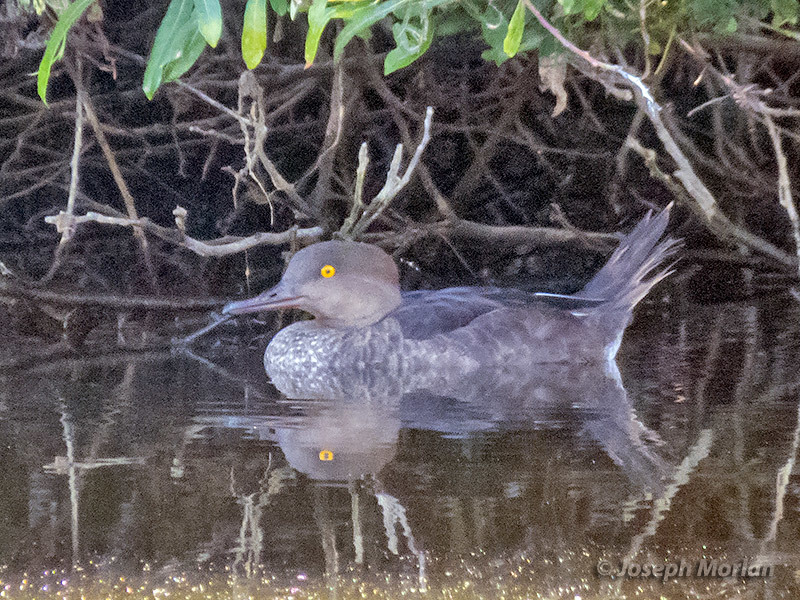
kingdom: Animalia
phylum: Chordata
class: Aves
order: Anseriformes
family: Anatidae
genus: Lophodytes
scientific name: Lophodytes cucullatus
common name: Hooded merganser
